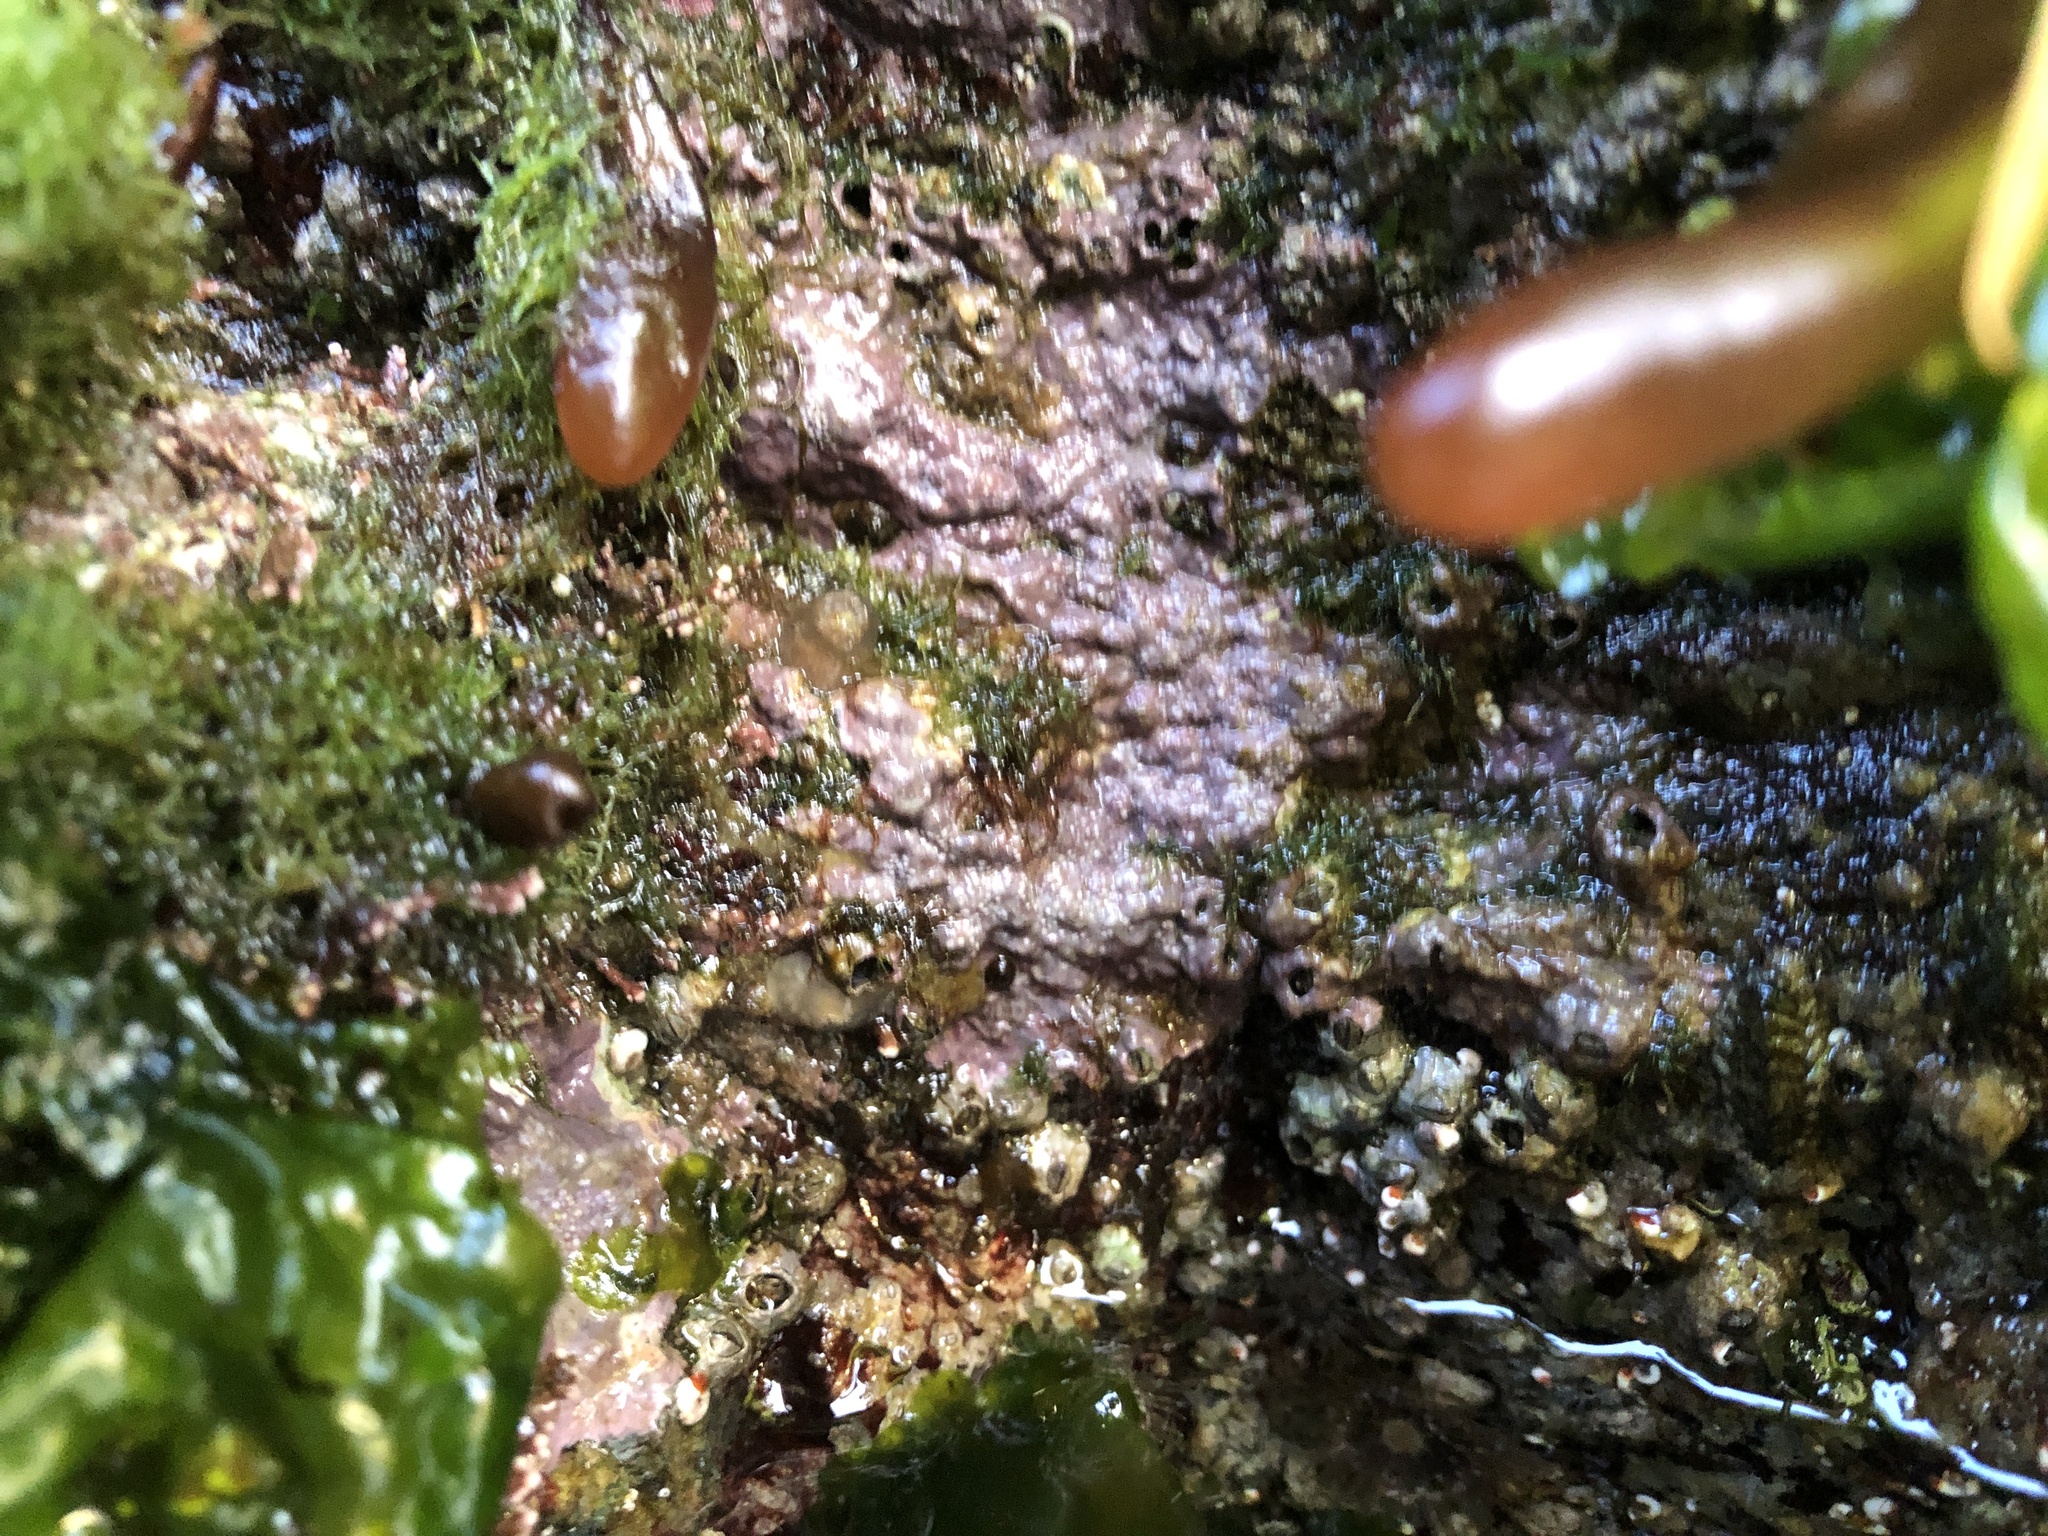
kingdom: Plantae
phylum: Rhodophyta
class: Florideophyceae
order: Corallinales
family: Corallinaceae
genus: Chamberlainium
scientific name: Chamberlainium tumidum
